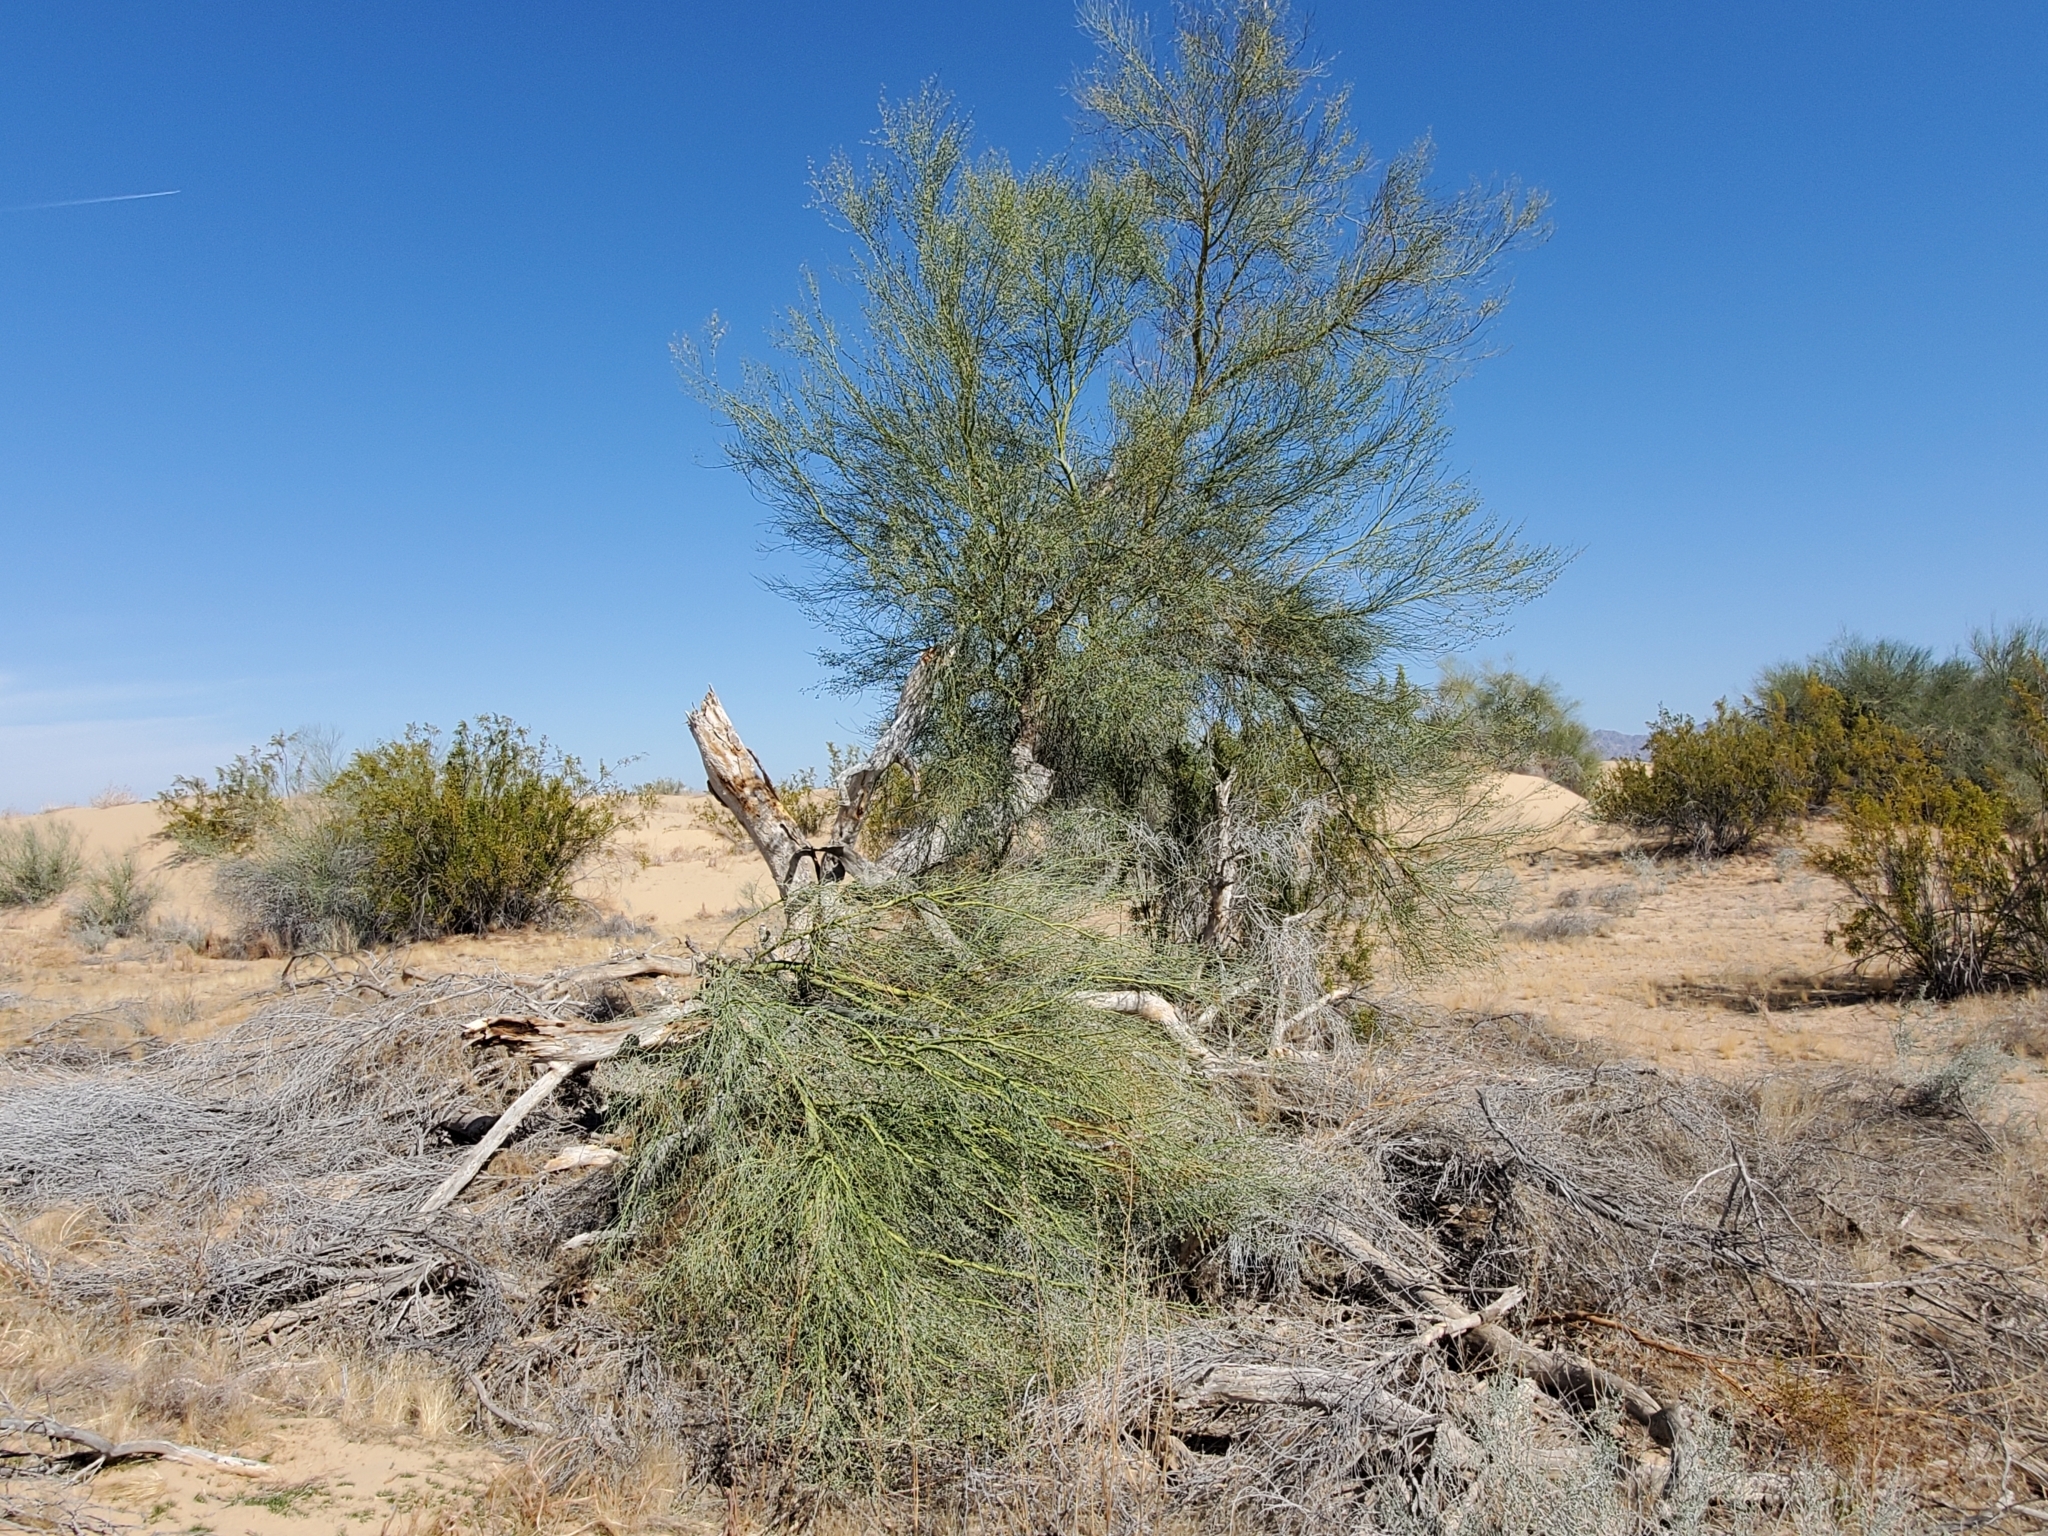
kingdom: Plantae
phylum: Tracheophyta
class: Magnoliopsida
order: Fabales
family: Fabaceae
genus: Parkinsonia
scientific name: Parkinsonia florida
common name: Blue paloverde
